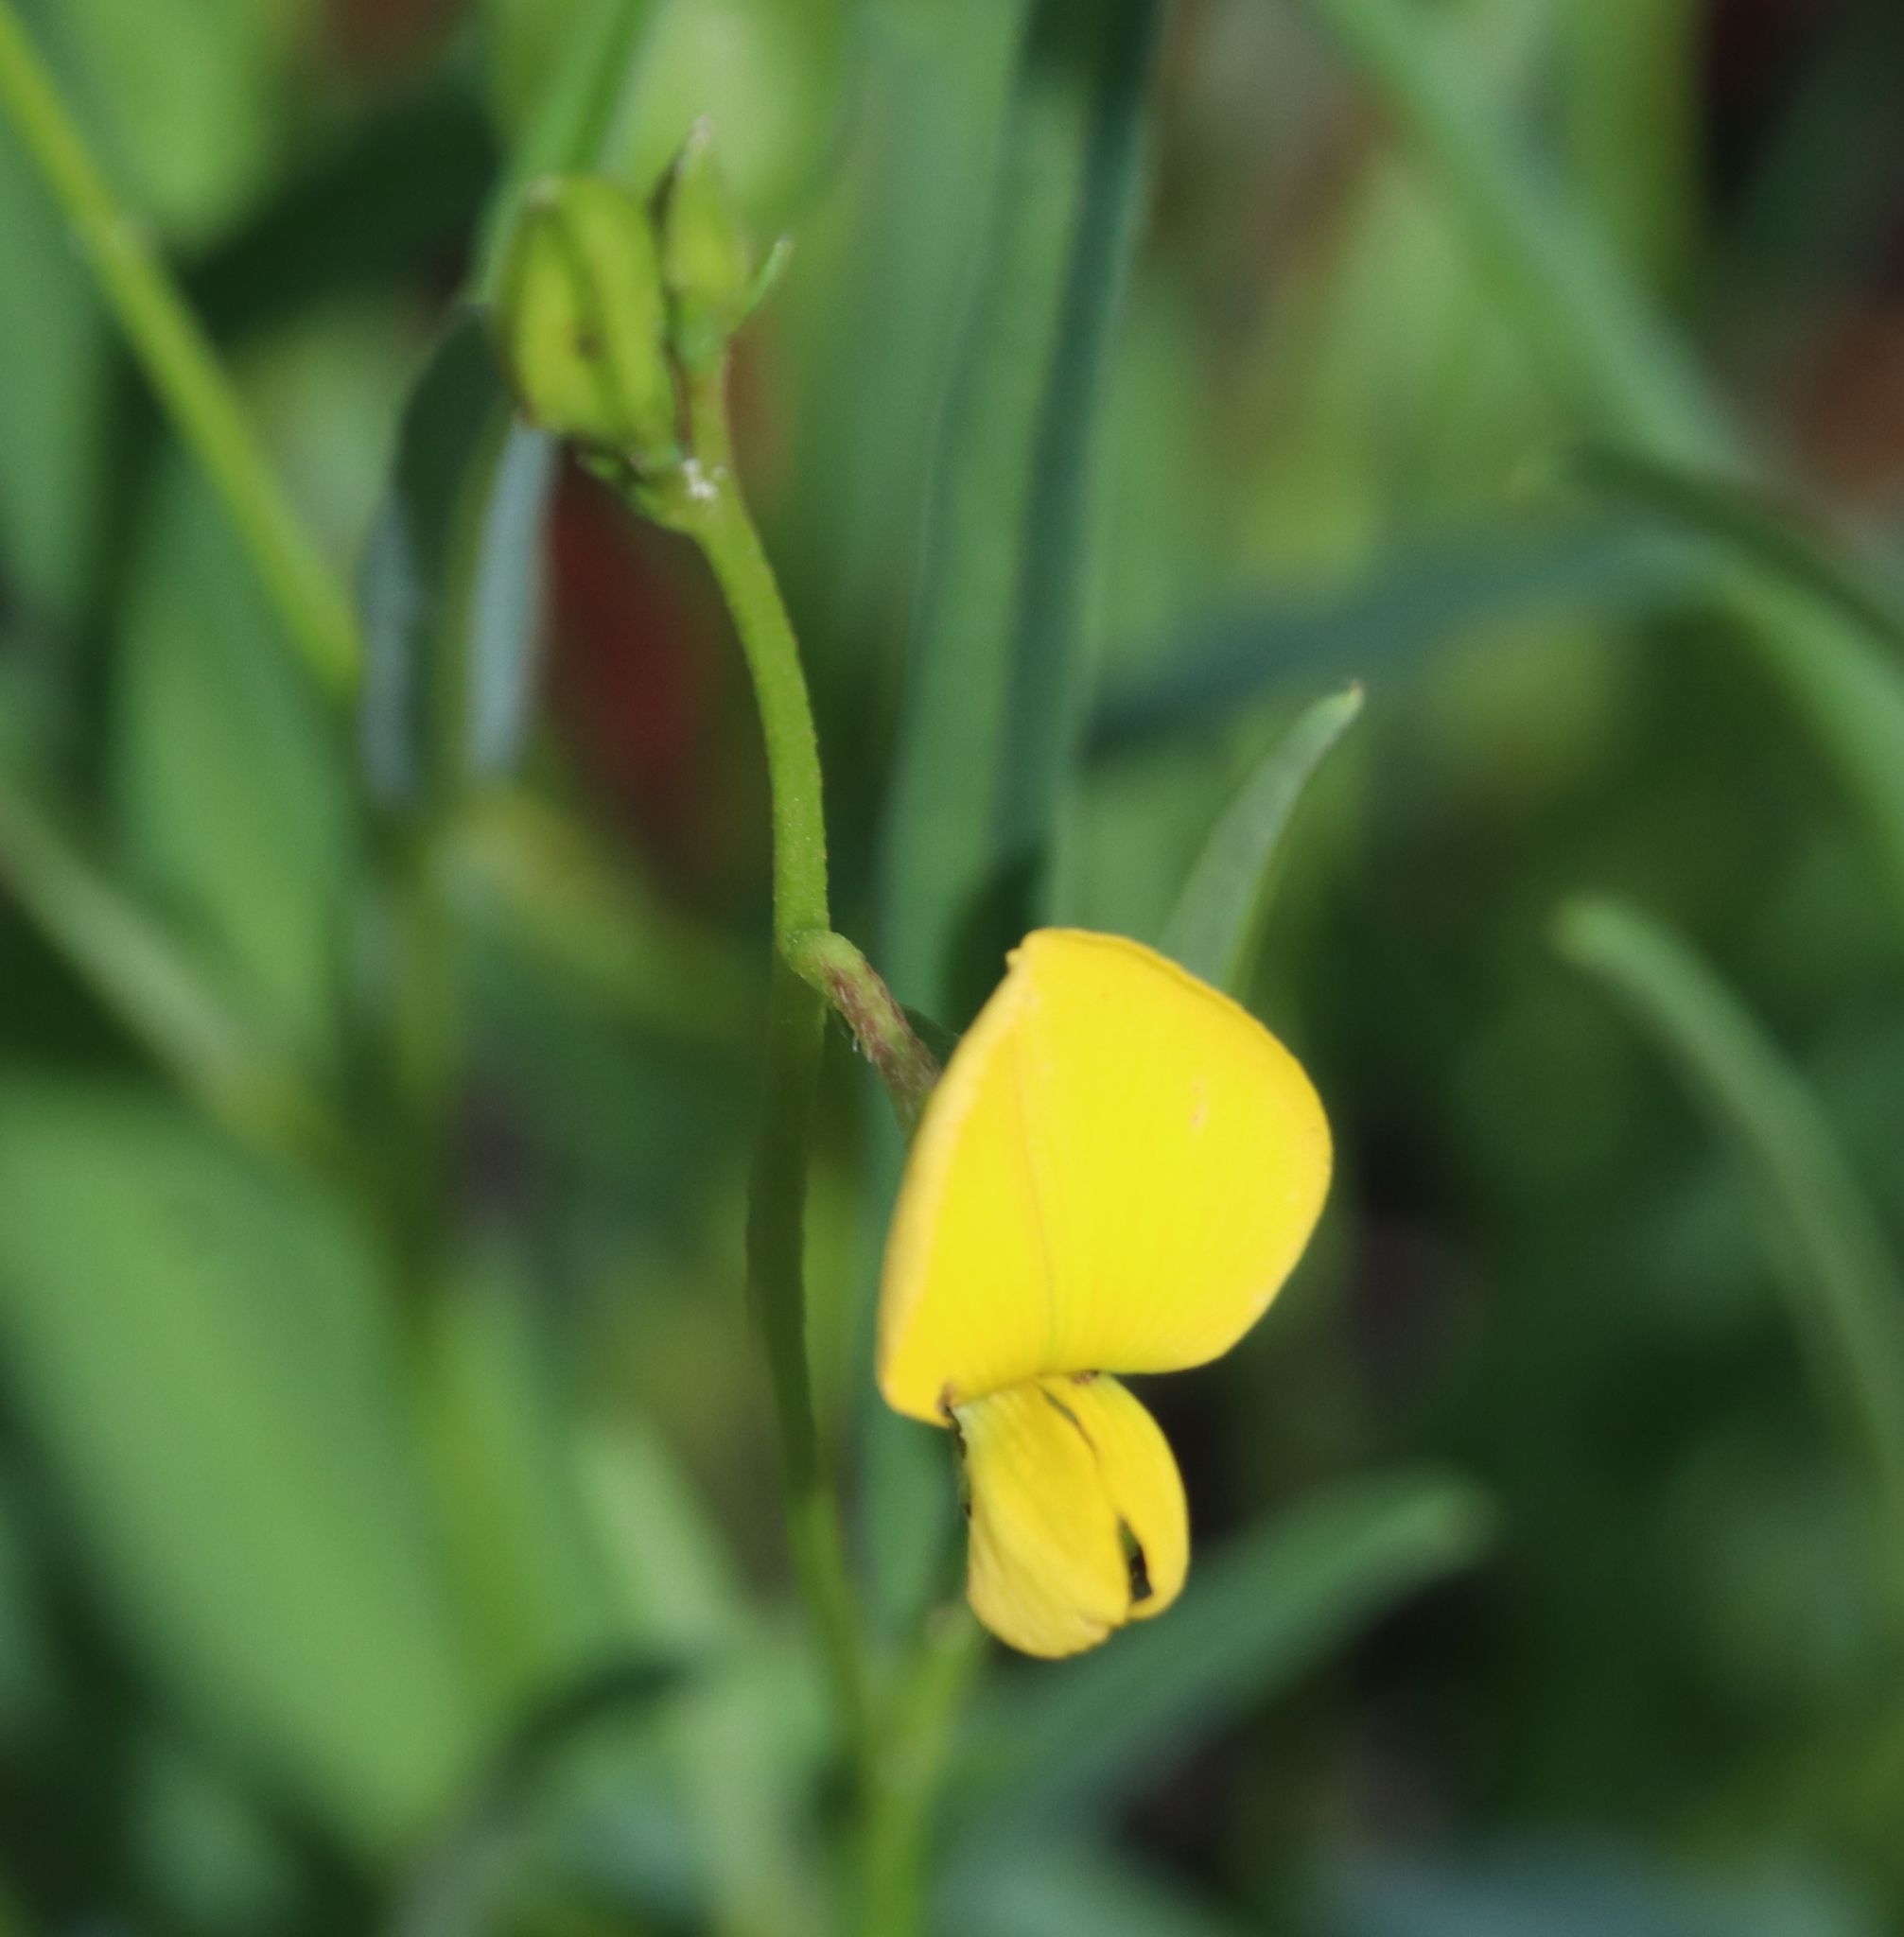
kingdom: Plantae
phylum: Tracheophyta
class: Magnoliopsida
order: Fabales
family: Fabaceae
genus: Crotalaria
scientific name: Crotalaria purshii
